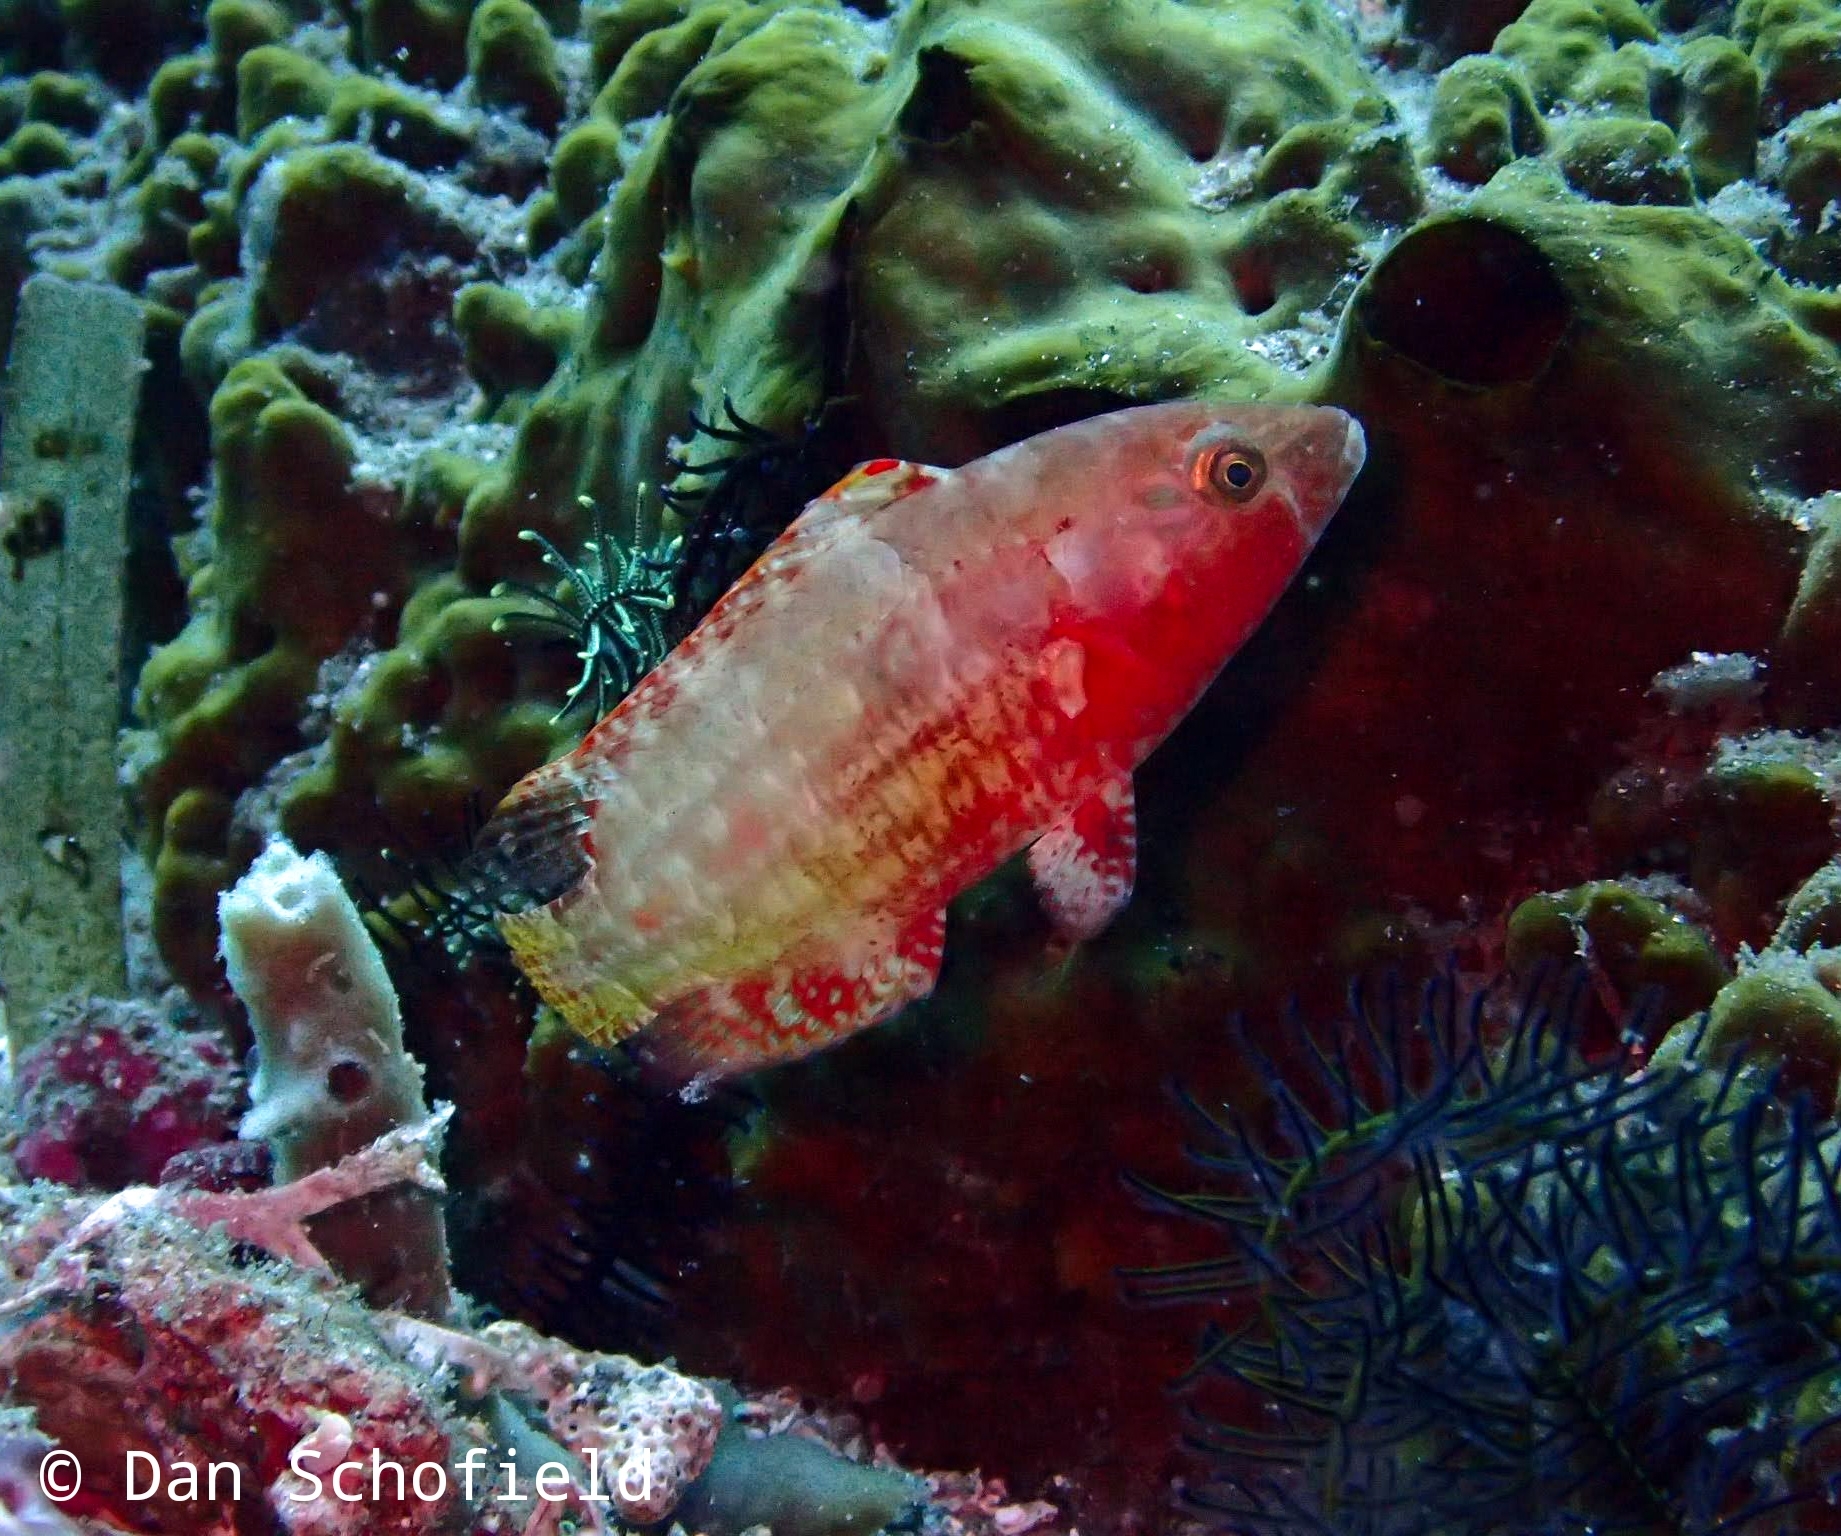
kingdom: Animalia
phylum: Chordata
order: Perciformes
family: Labridae
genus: Oxycheilinus
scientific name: Oxycheilinus orientalis
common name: Oriental maori wrasse
